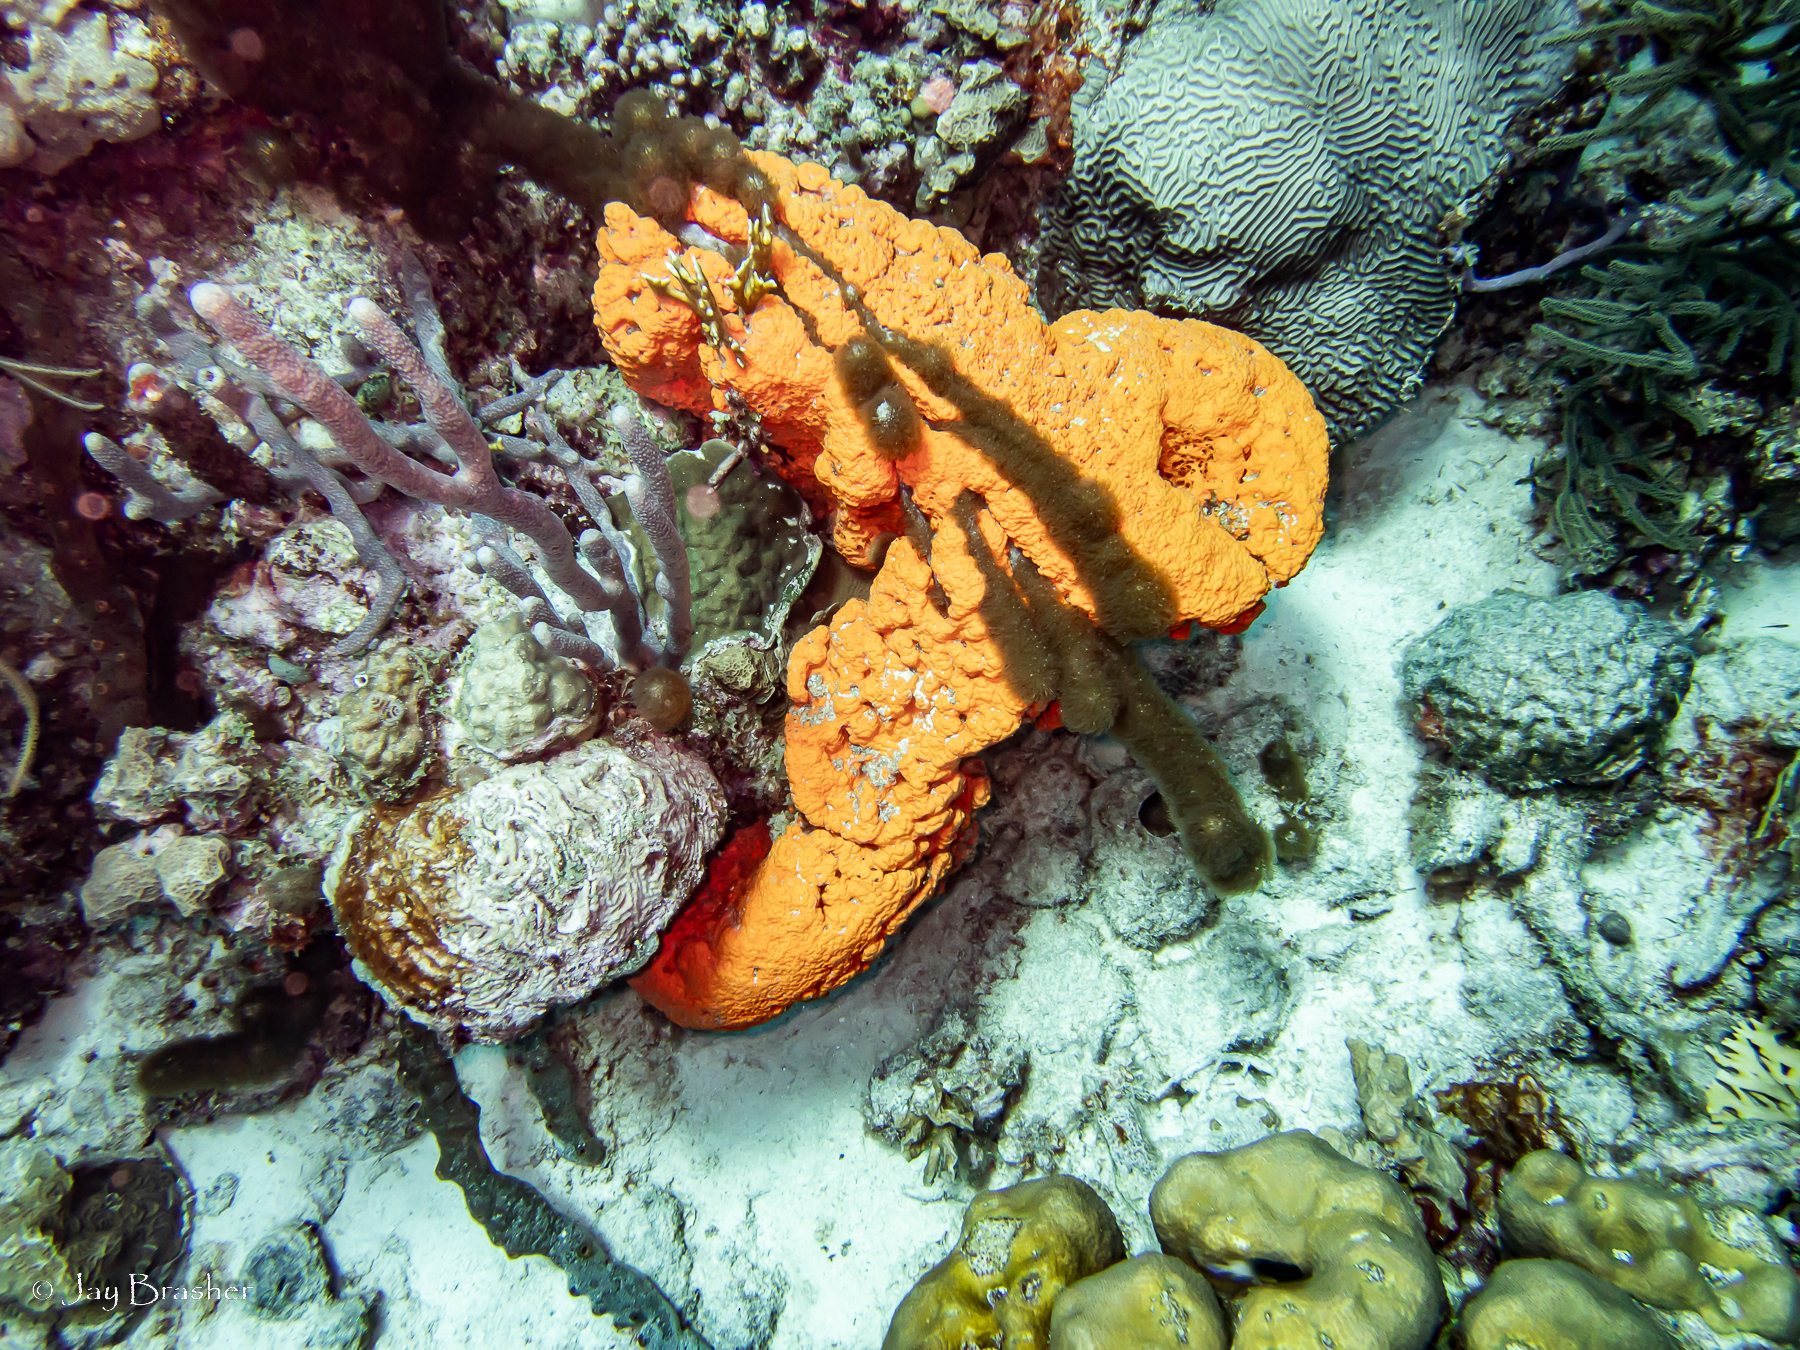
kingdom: Animalia
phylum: Porifera
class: Demospongiae
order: Agelasida
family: Agelasidae
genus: Agelas
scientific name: Agelas clathrodes
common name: Orange elephant ear sponge
